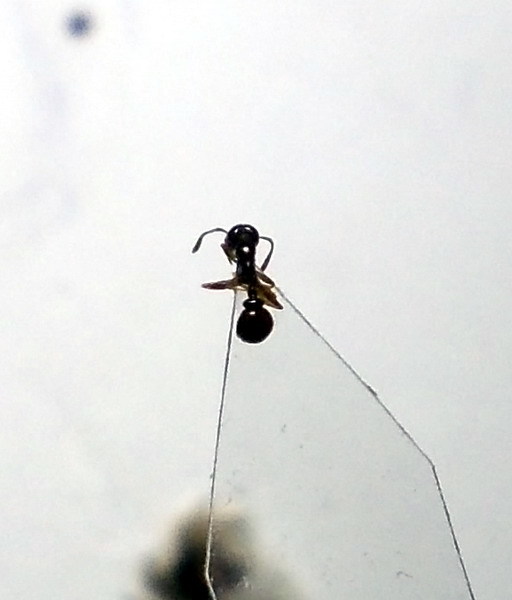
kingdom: Animalia
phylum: Arthropoda
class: Insecta
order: Hymenoptera
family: Formicidae
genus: Cardiocondyla
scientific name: Cardiocondyla stambuloffii
